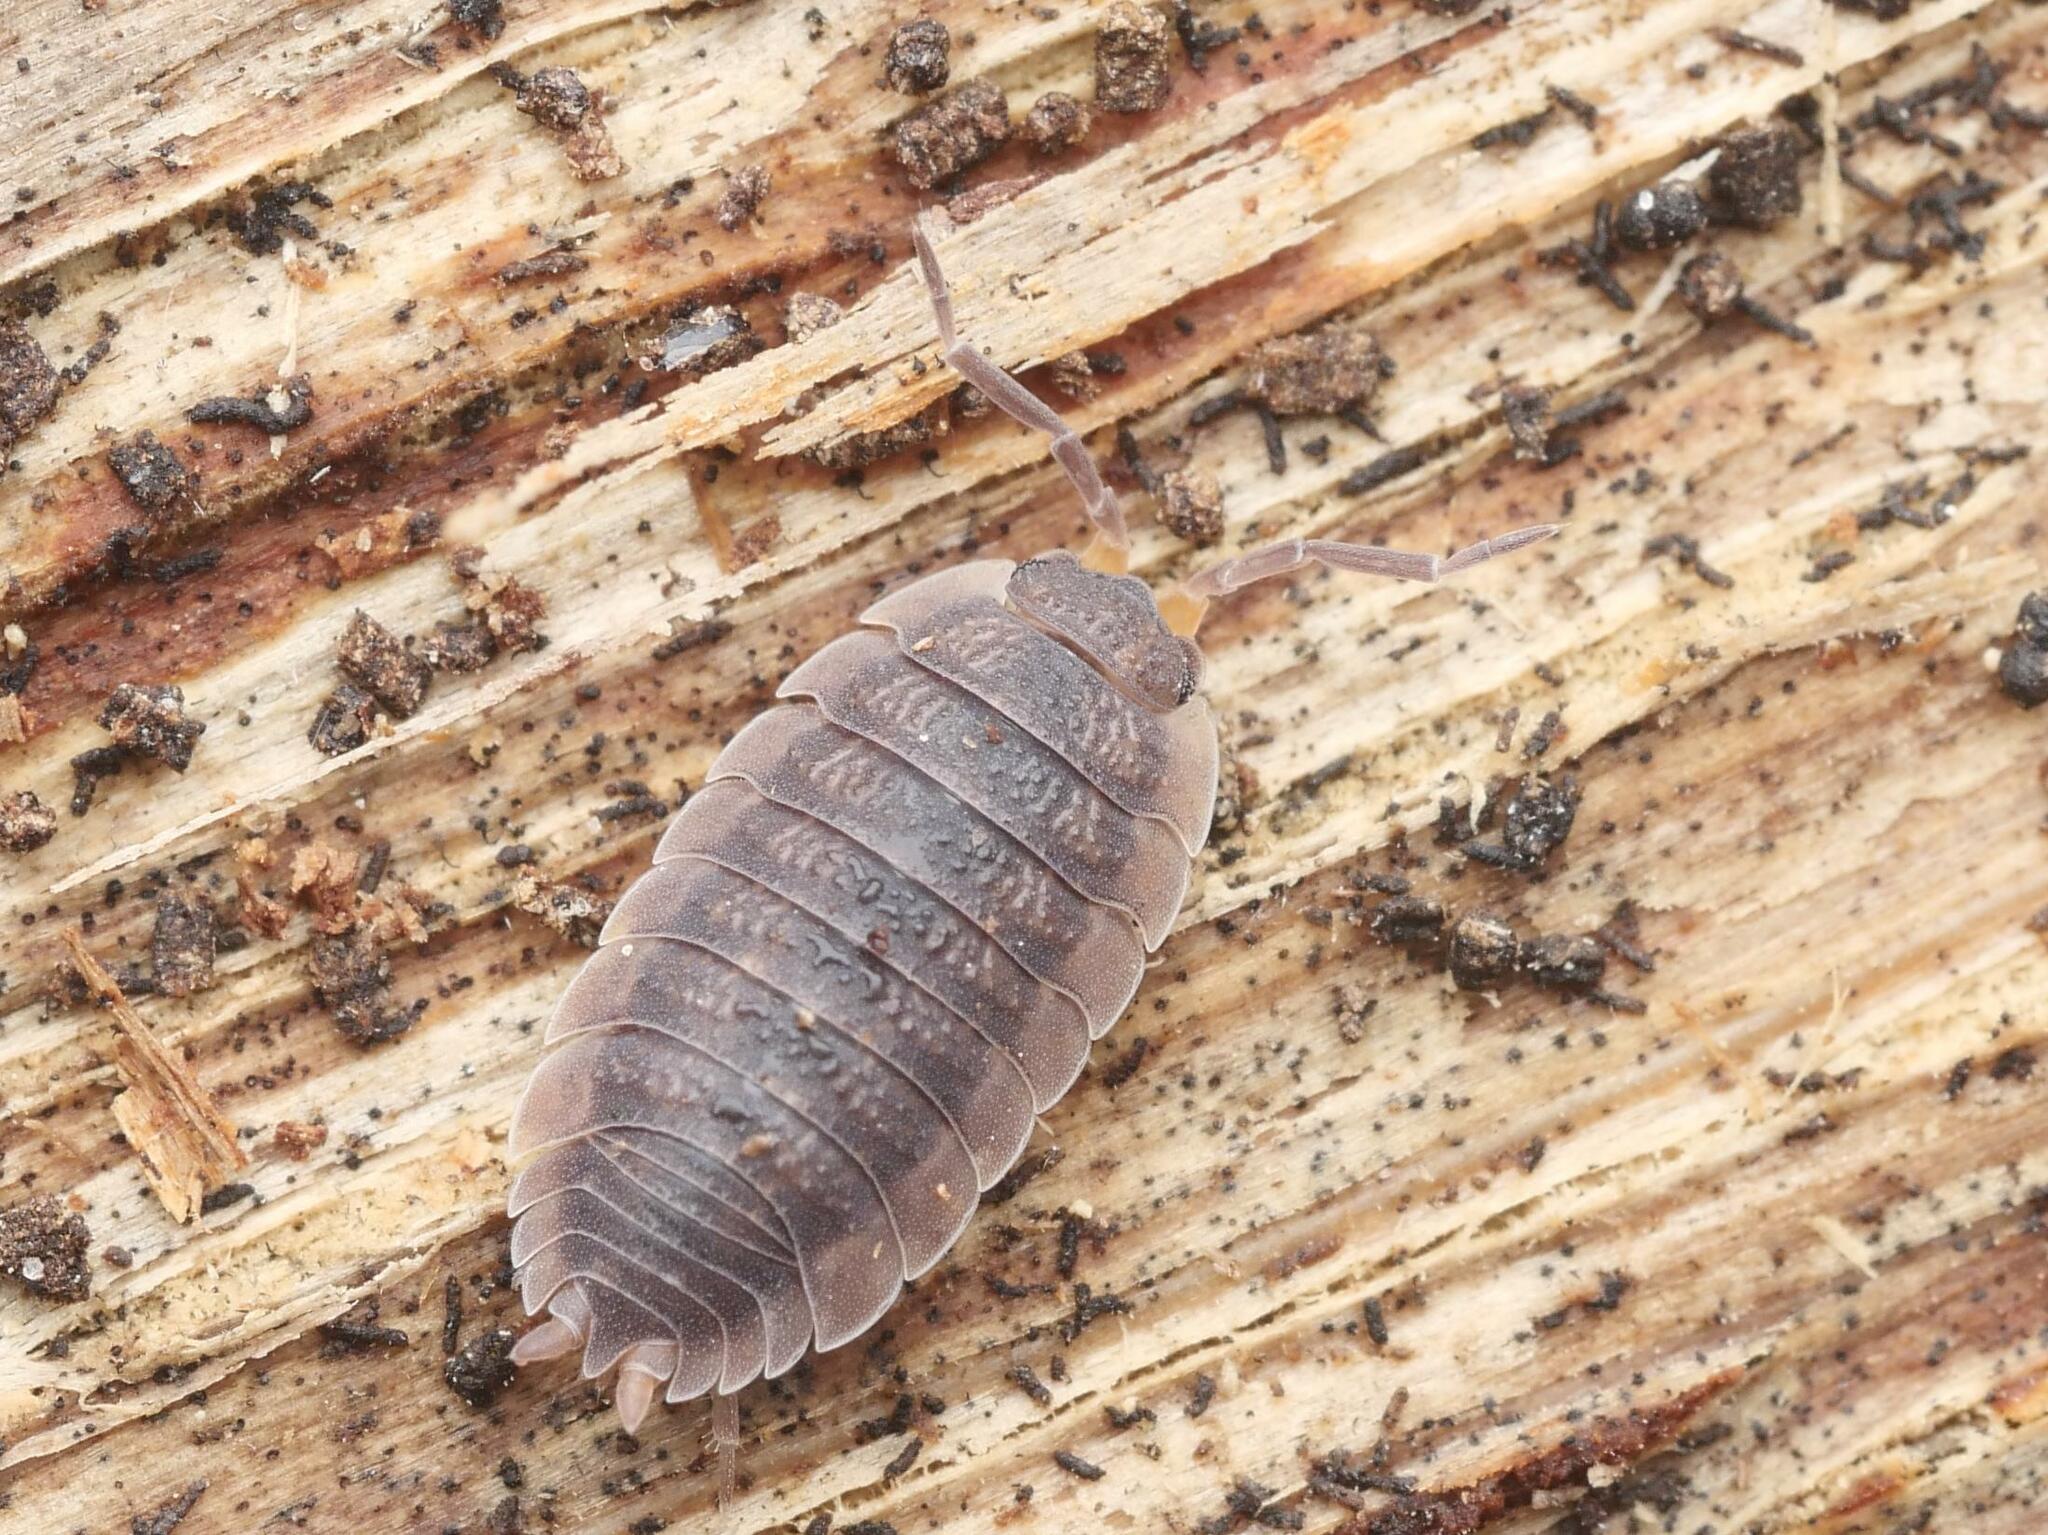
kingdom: Animalia
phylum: Arthropoda
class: Malacostraca
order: Isopoda
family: Porcellionidae
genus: Porcellio
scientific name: Porcellio scaber
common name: Common rough woodlouse
